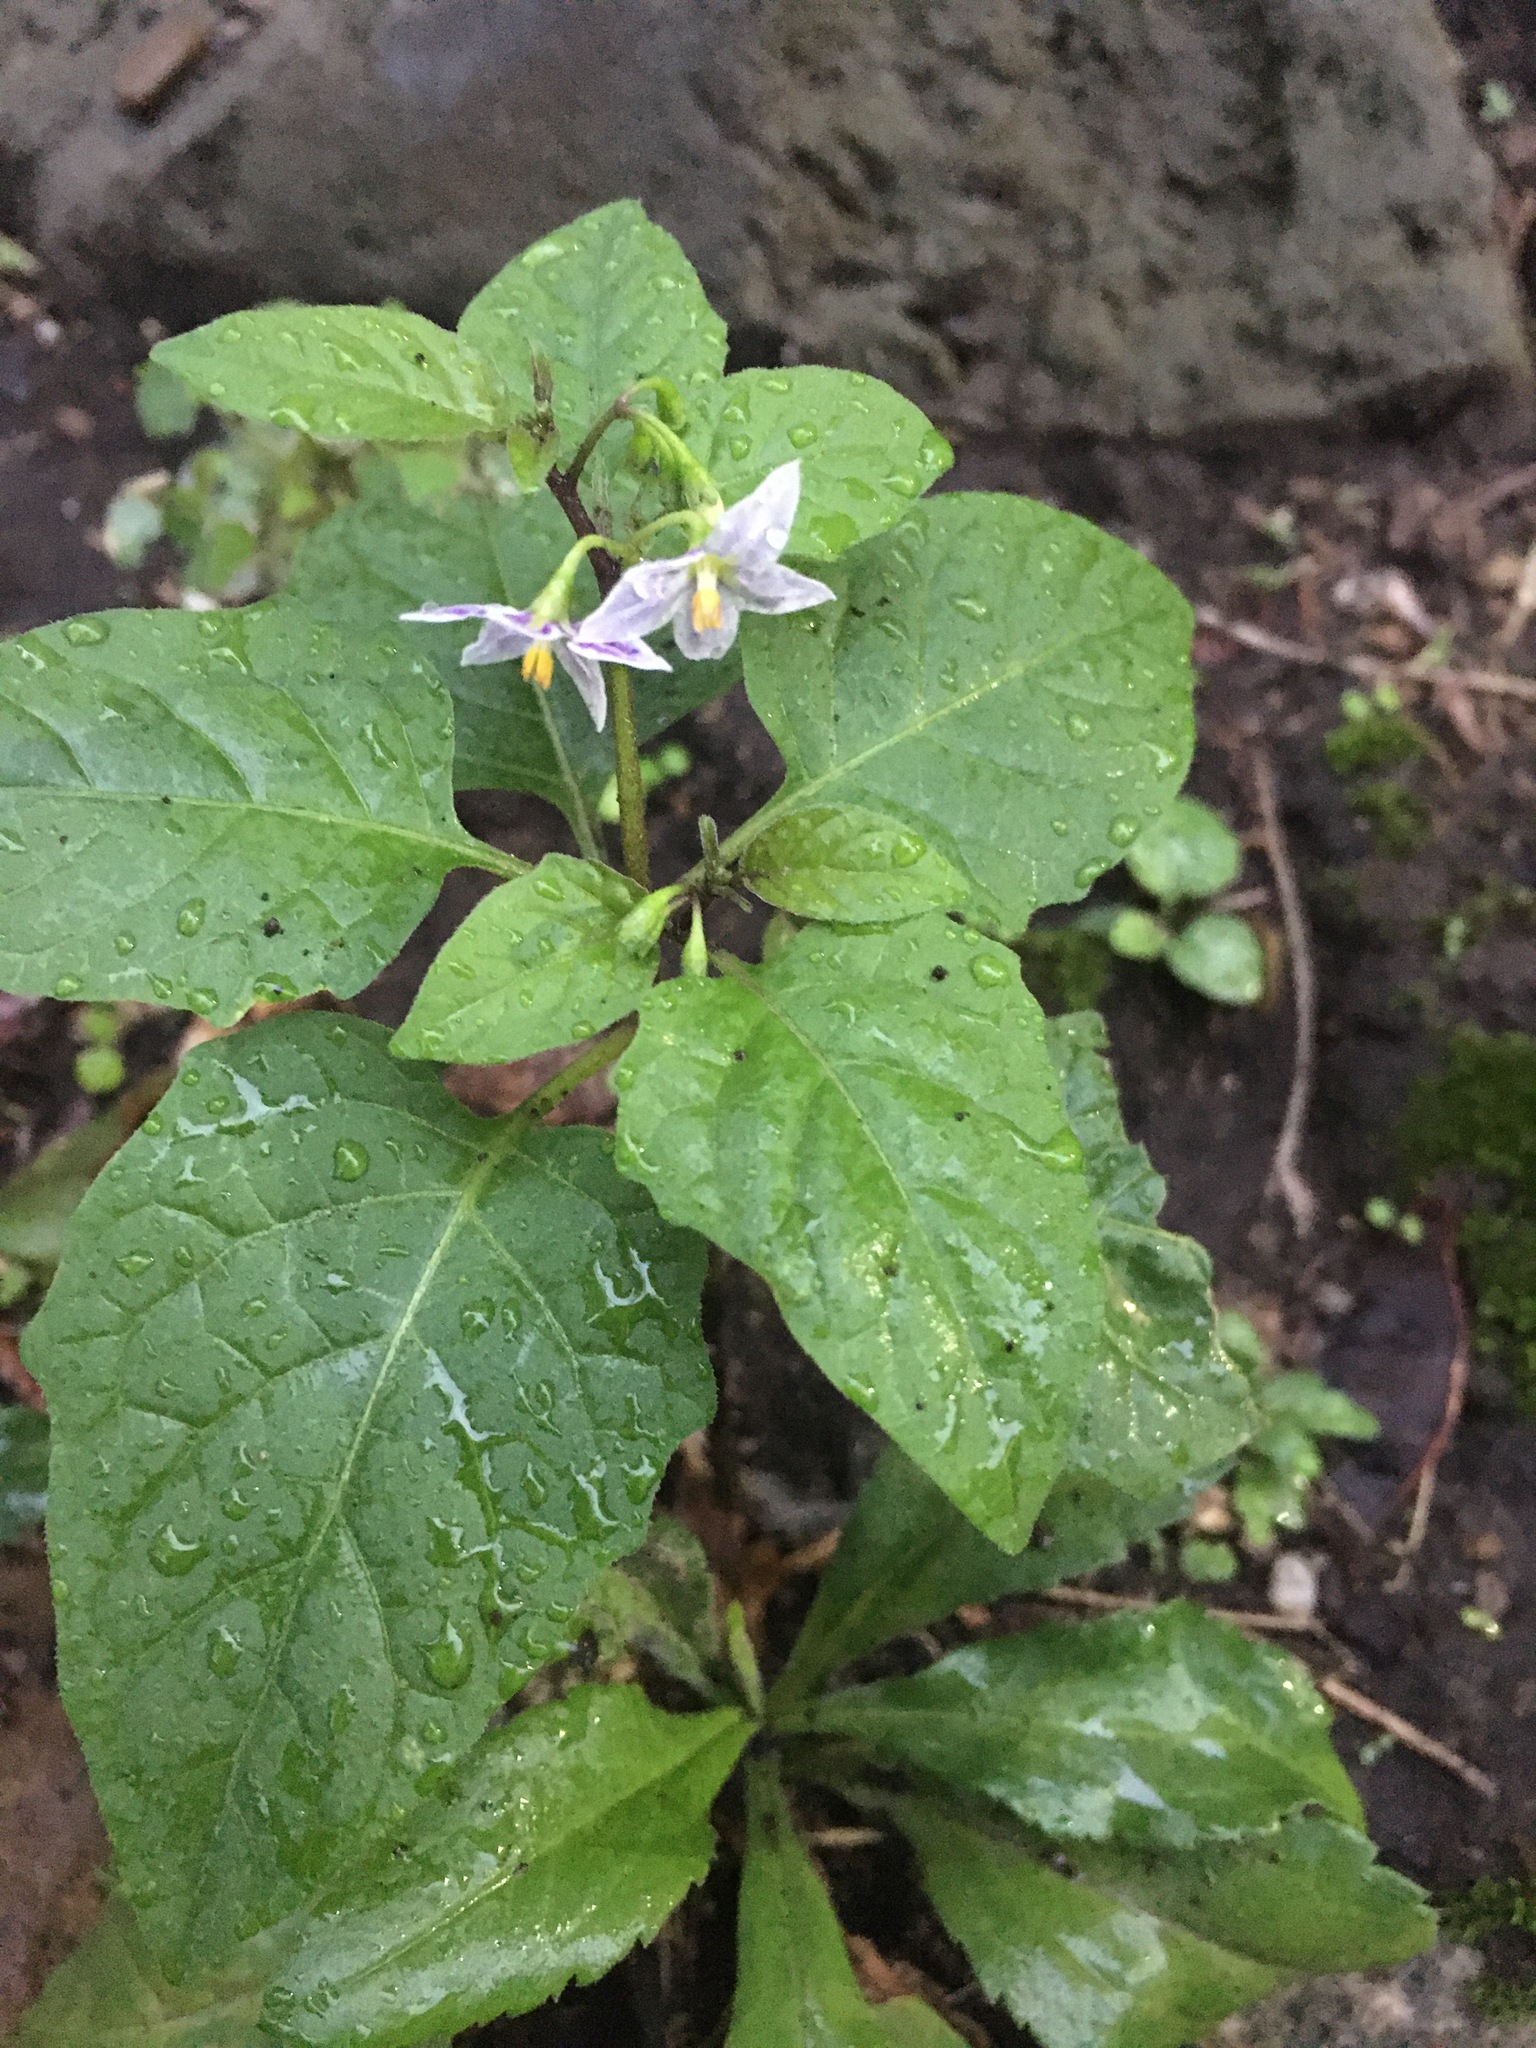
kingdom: Plantae
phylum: Tracheophyta
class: Magnoliopsida
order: Solanales
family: Solanaceae
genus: Solanum
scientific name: Solanum emulans
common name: Eastern black nightshade
